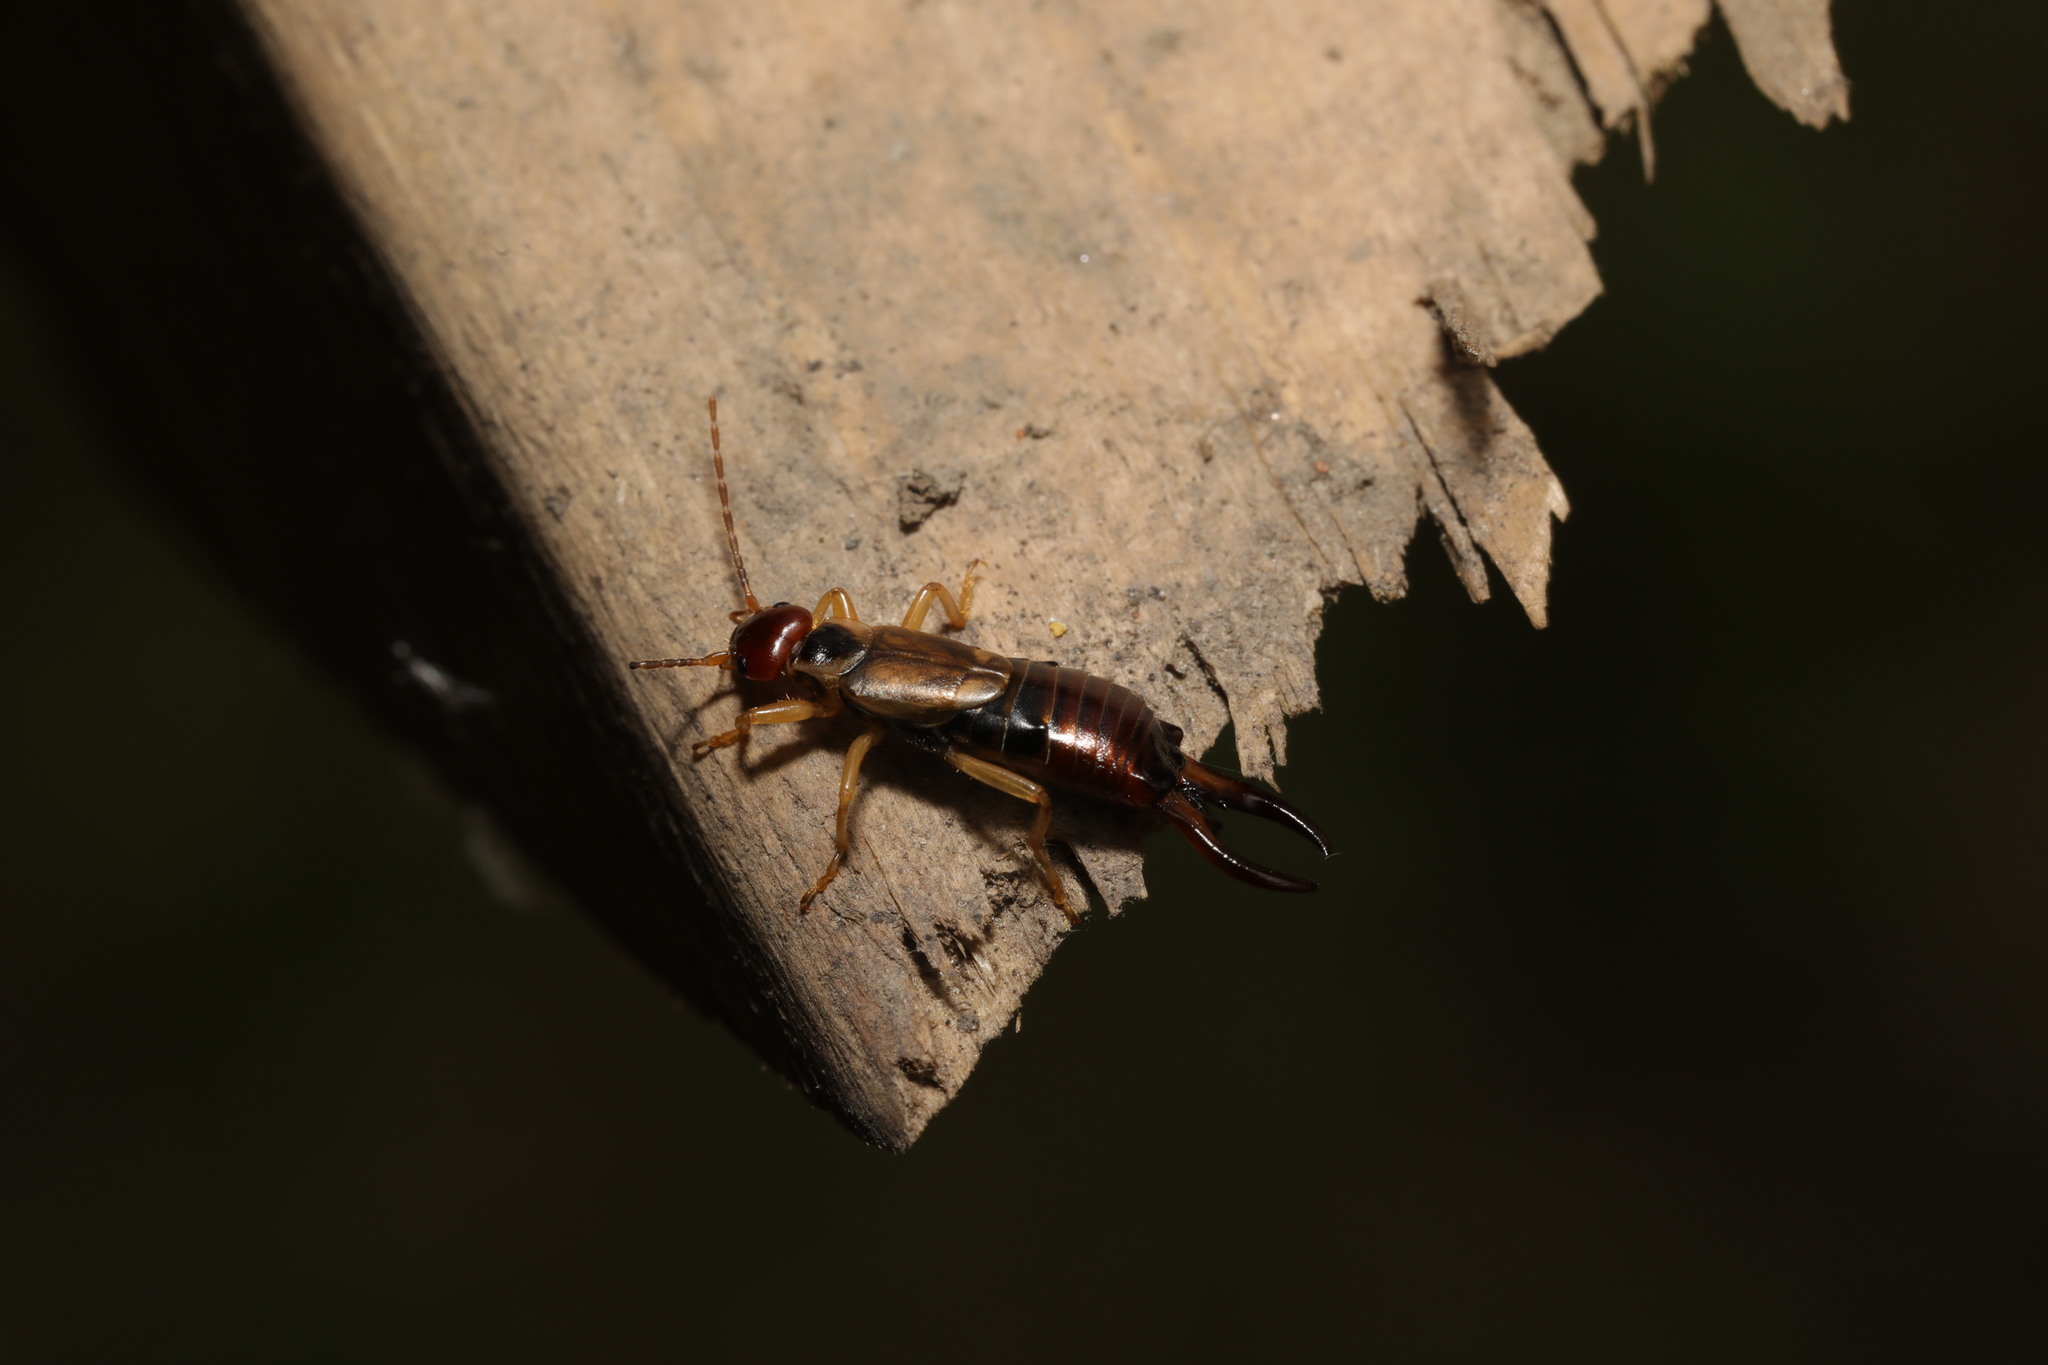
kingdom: Animalia
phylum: Arthropoda
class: Insecta
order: Dermaptera
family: Forficulidae
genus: Forficula
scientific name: Forficula
